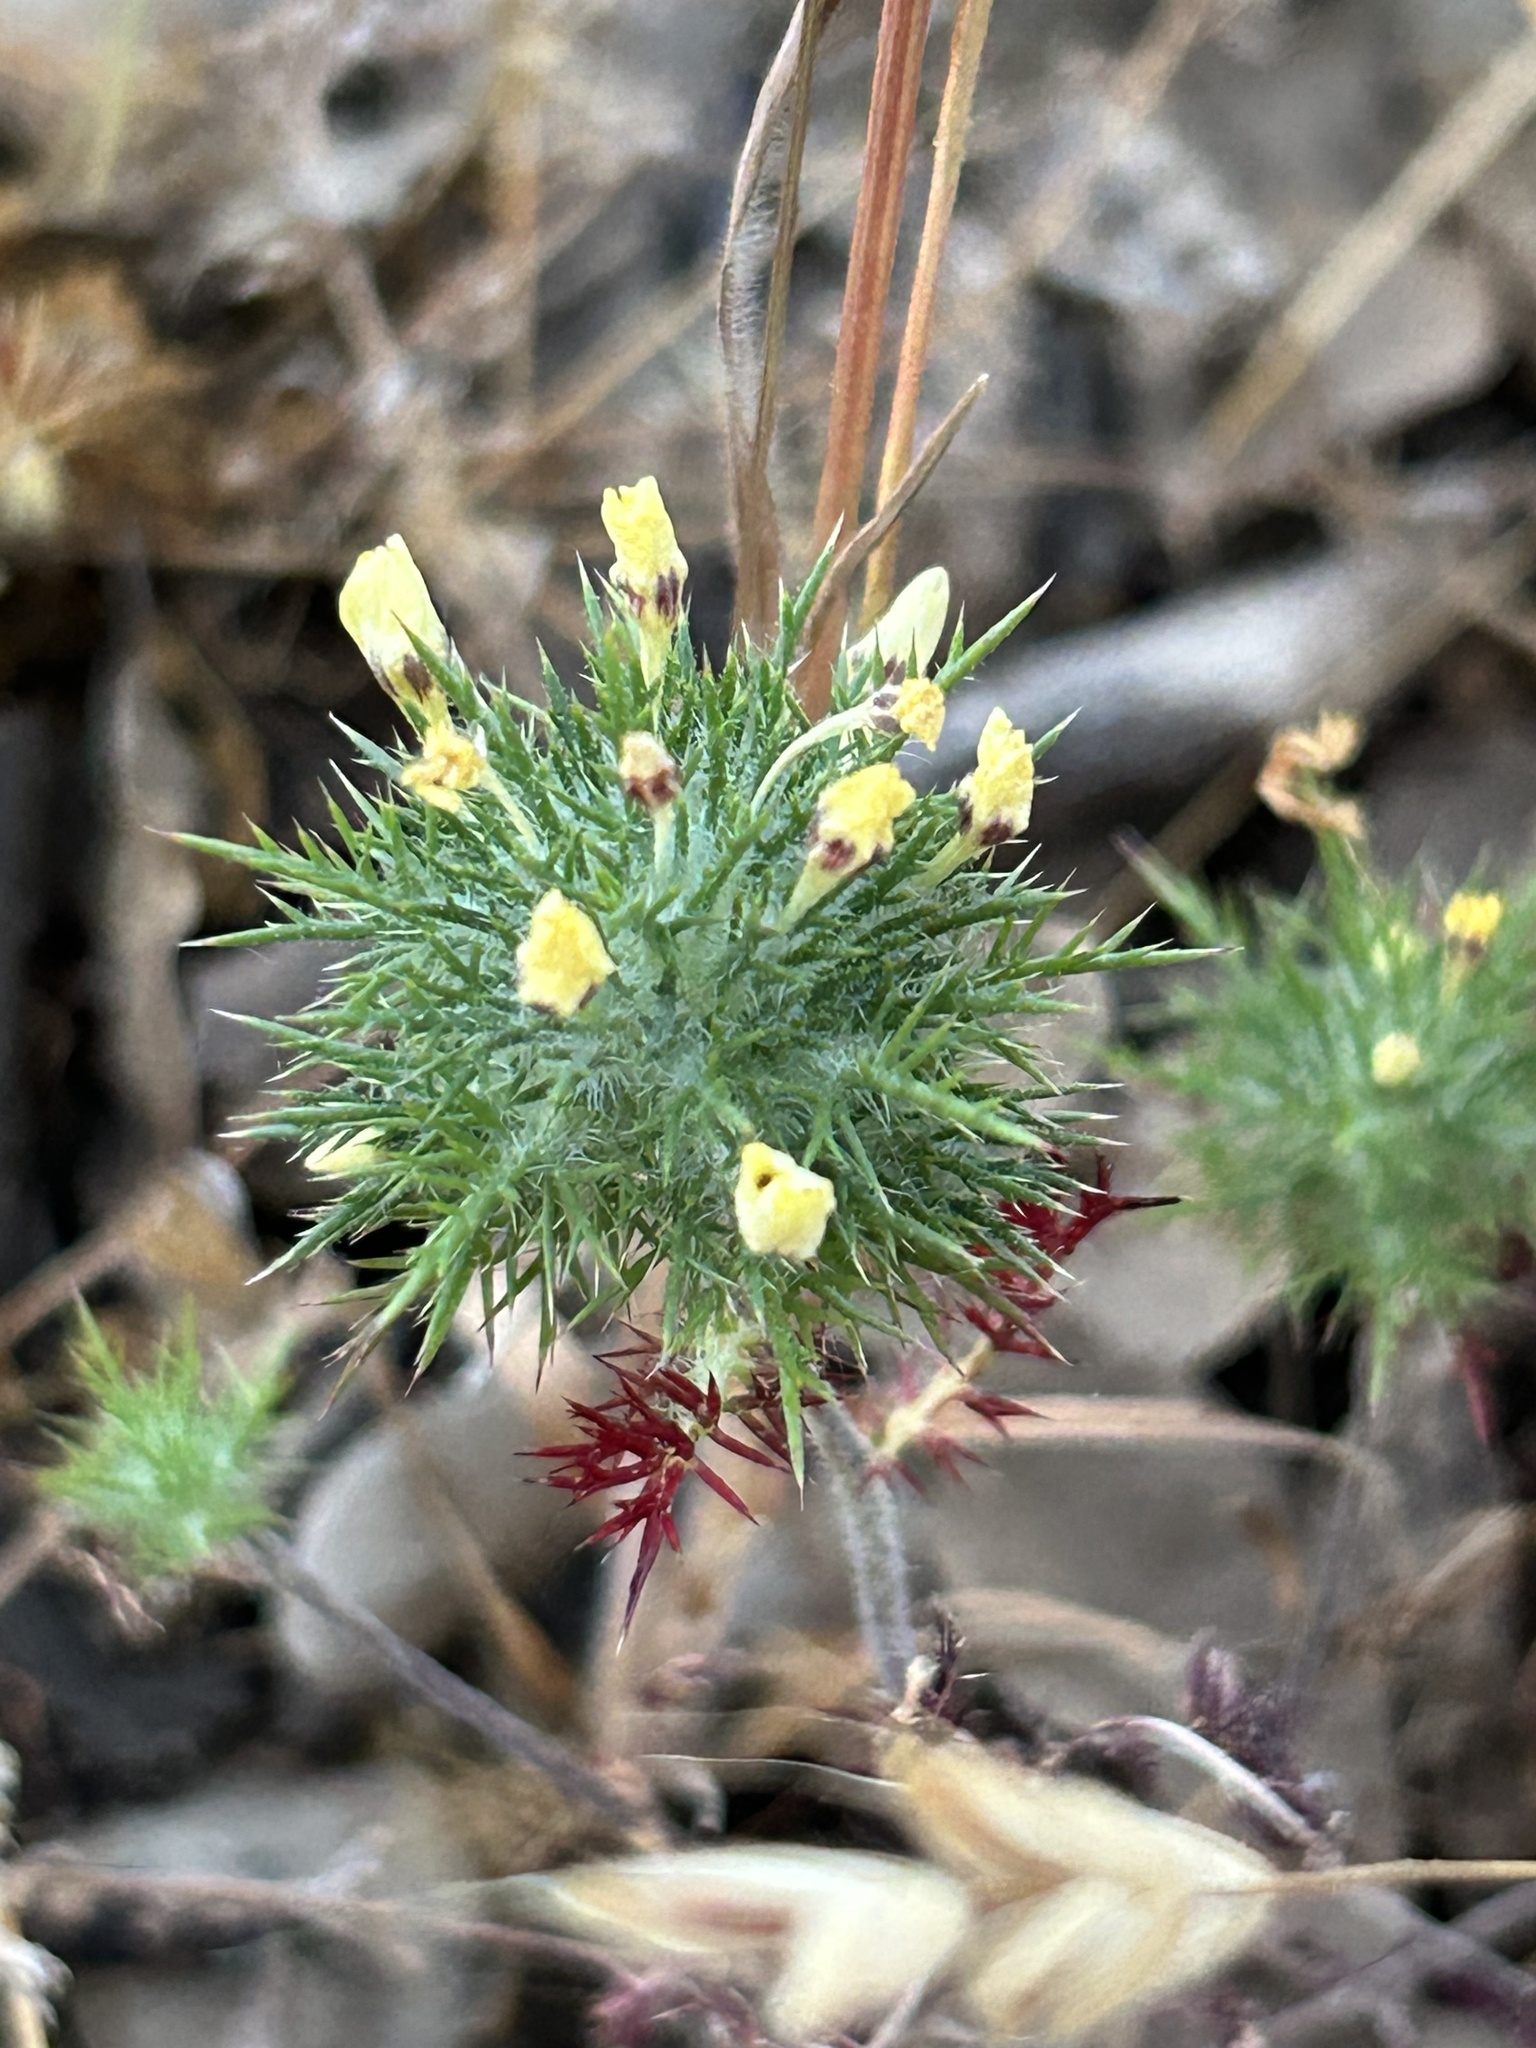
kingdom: Plantae
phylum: Tracheophyta
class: Magnoliopsida
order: Ericales
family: Polemoniaceae
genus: Navarretia
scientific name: Navarretia nigelliformis
